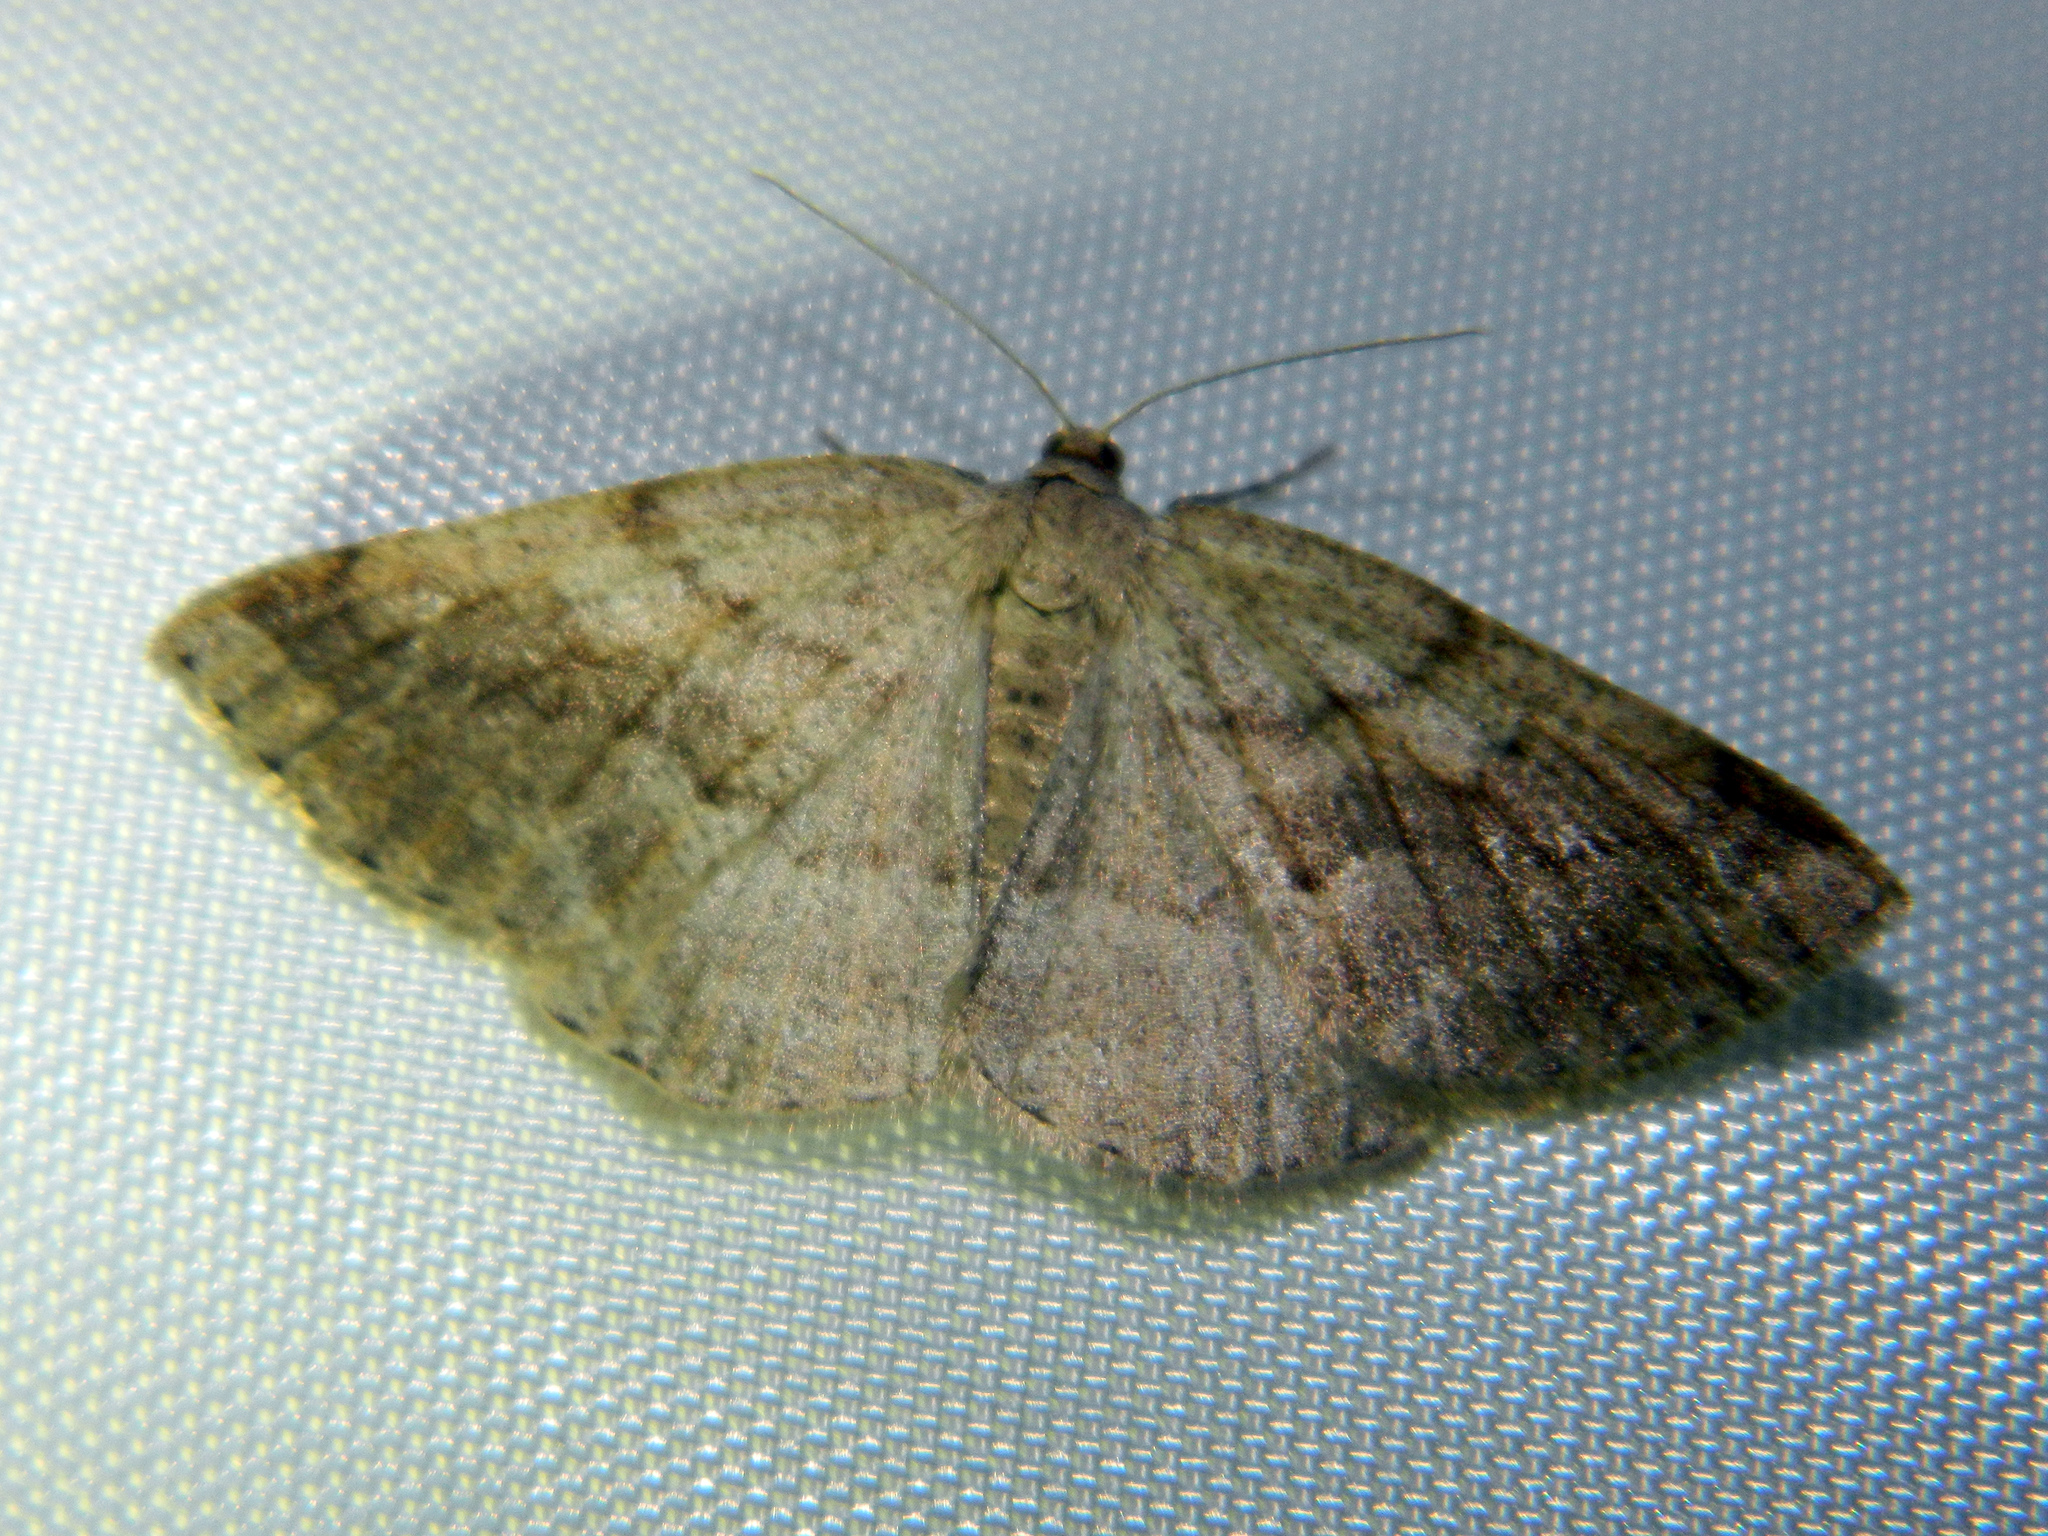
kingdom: Animalia
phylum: Arthropoda
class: Insecta
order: Lepidoptera
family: Geometridae
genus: Tacparia
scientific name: Tacparia detersata
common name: Pale alder moth
